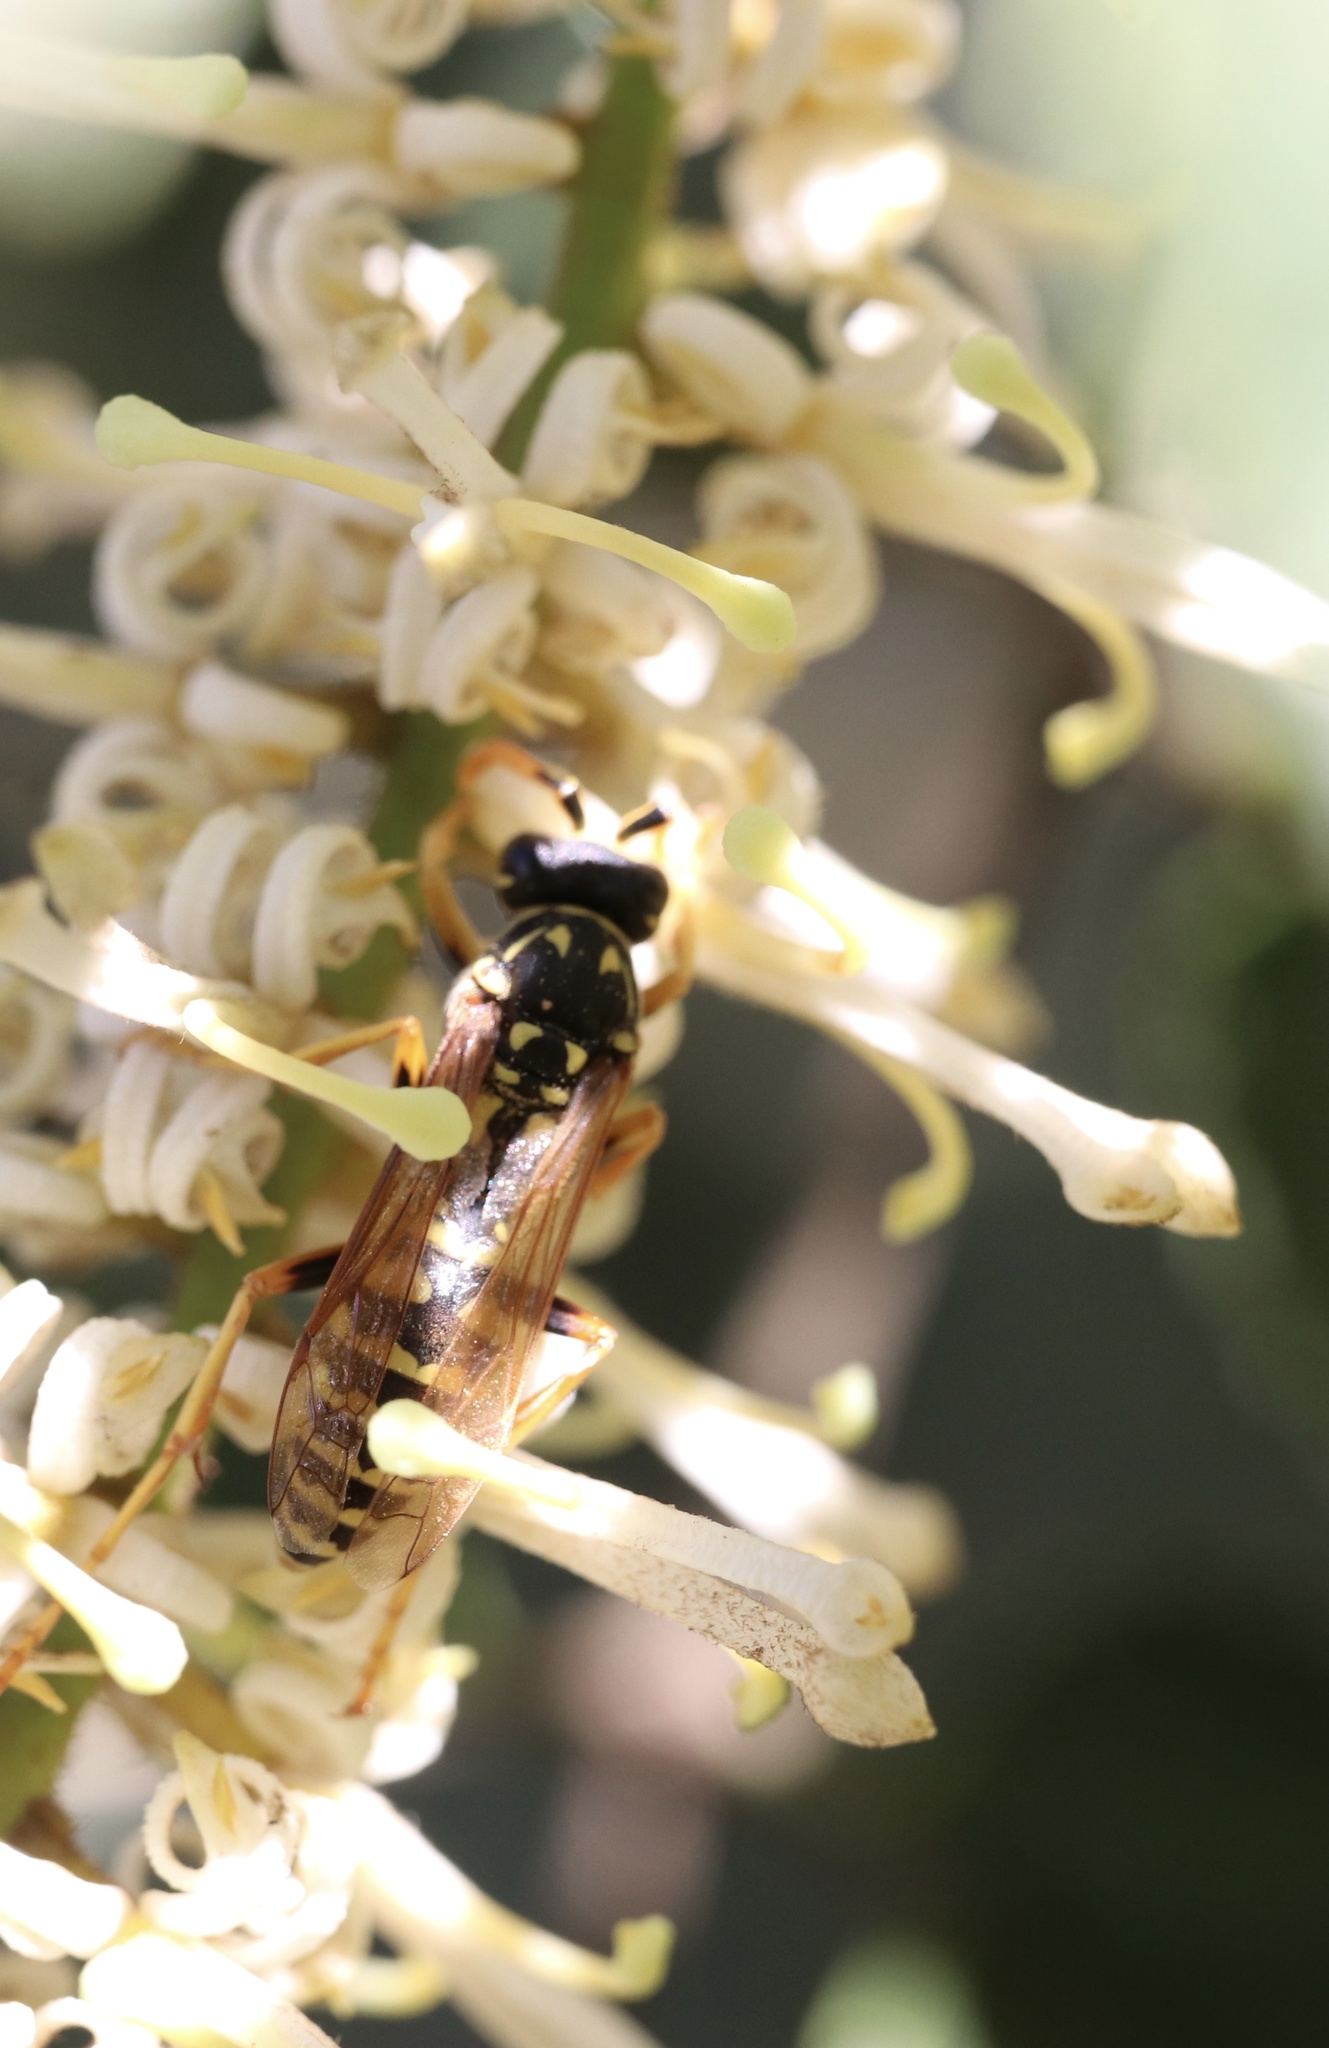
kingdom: Animalia
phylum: Arthropoda
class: Insecta
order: Hymenoptera
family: Eumenidae
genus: Polistes
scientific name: Polistes dominula
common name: Paper wasp
